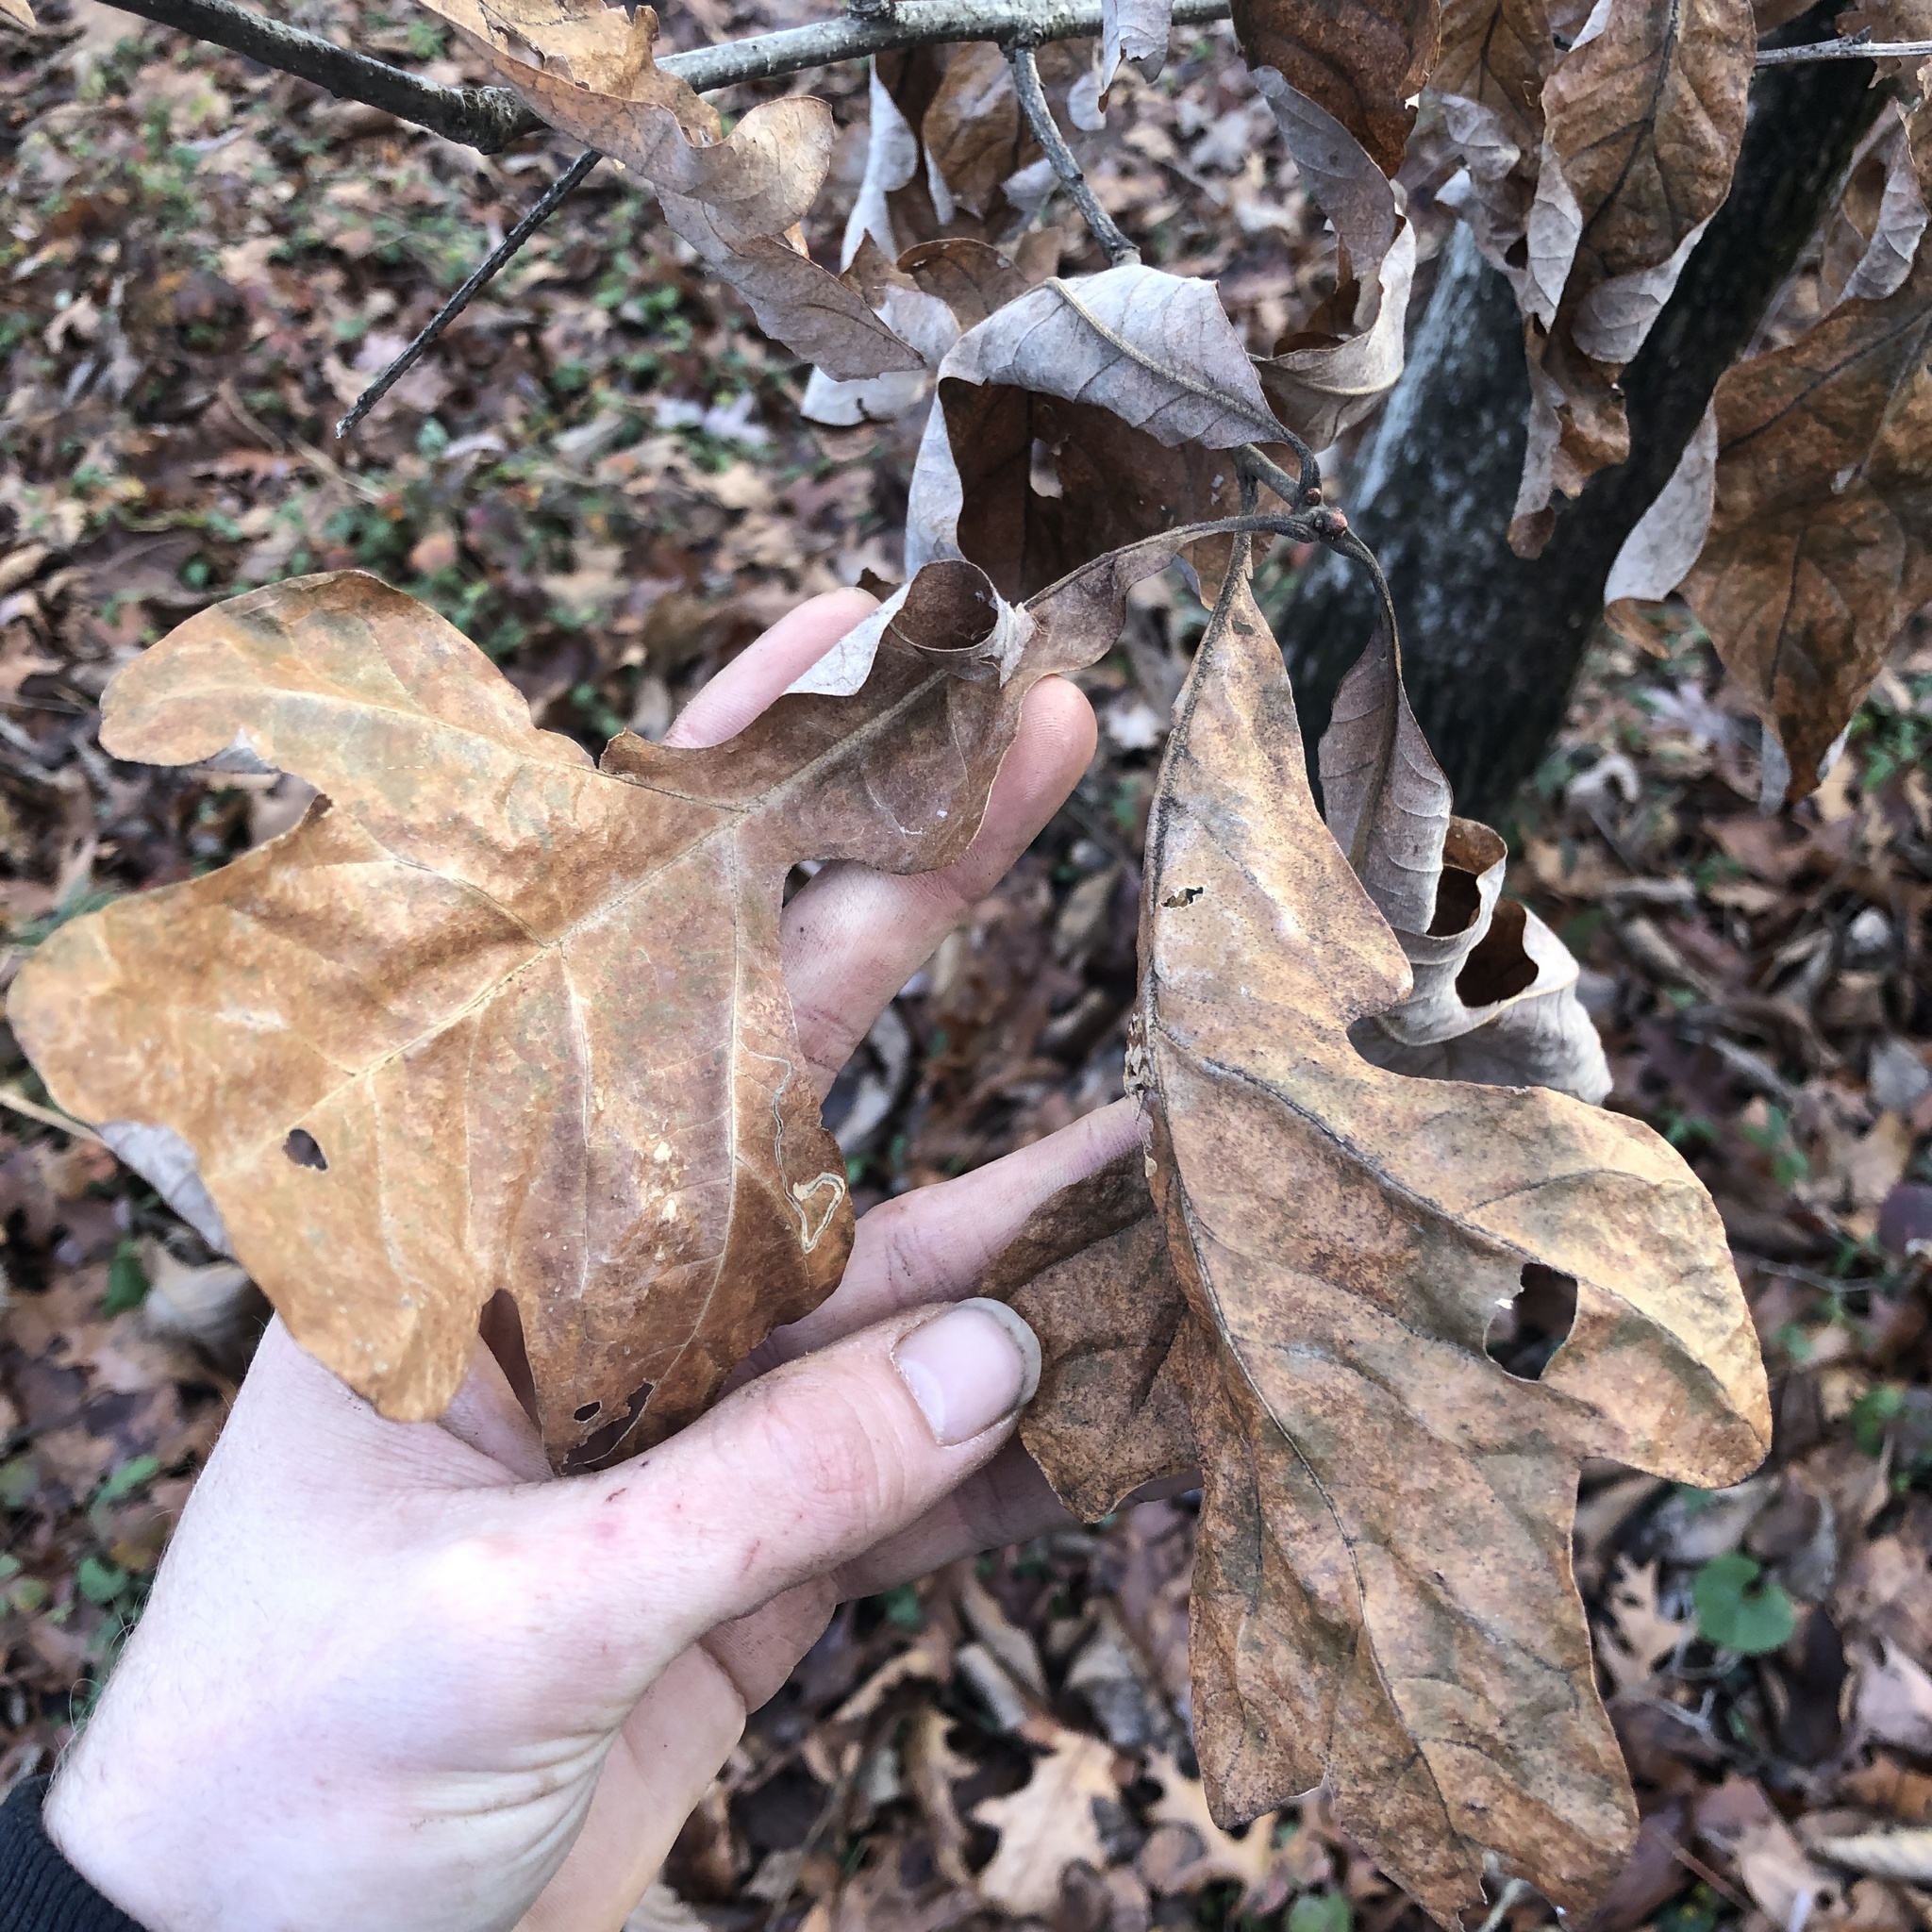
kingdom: Plantae
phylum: Tracheophyta
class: Magnoliopsida
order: Fagales
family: Fagaceae
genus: Quercus
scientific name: Quercus stellata
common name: Post oak
